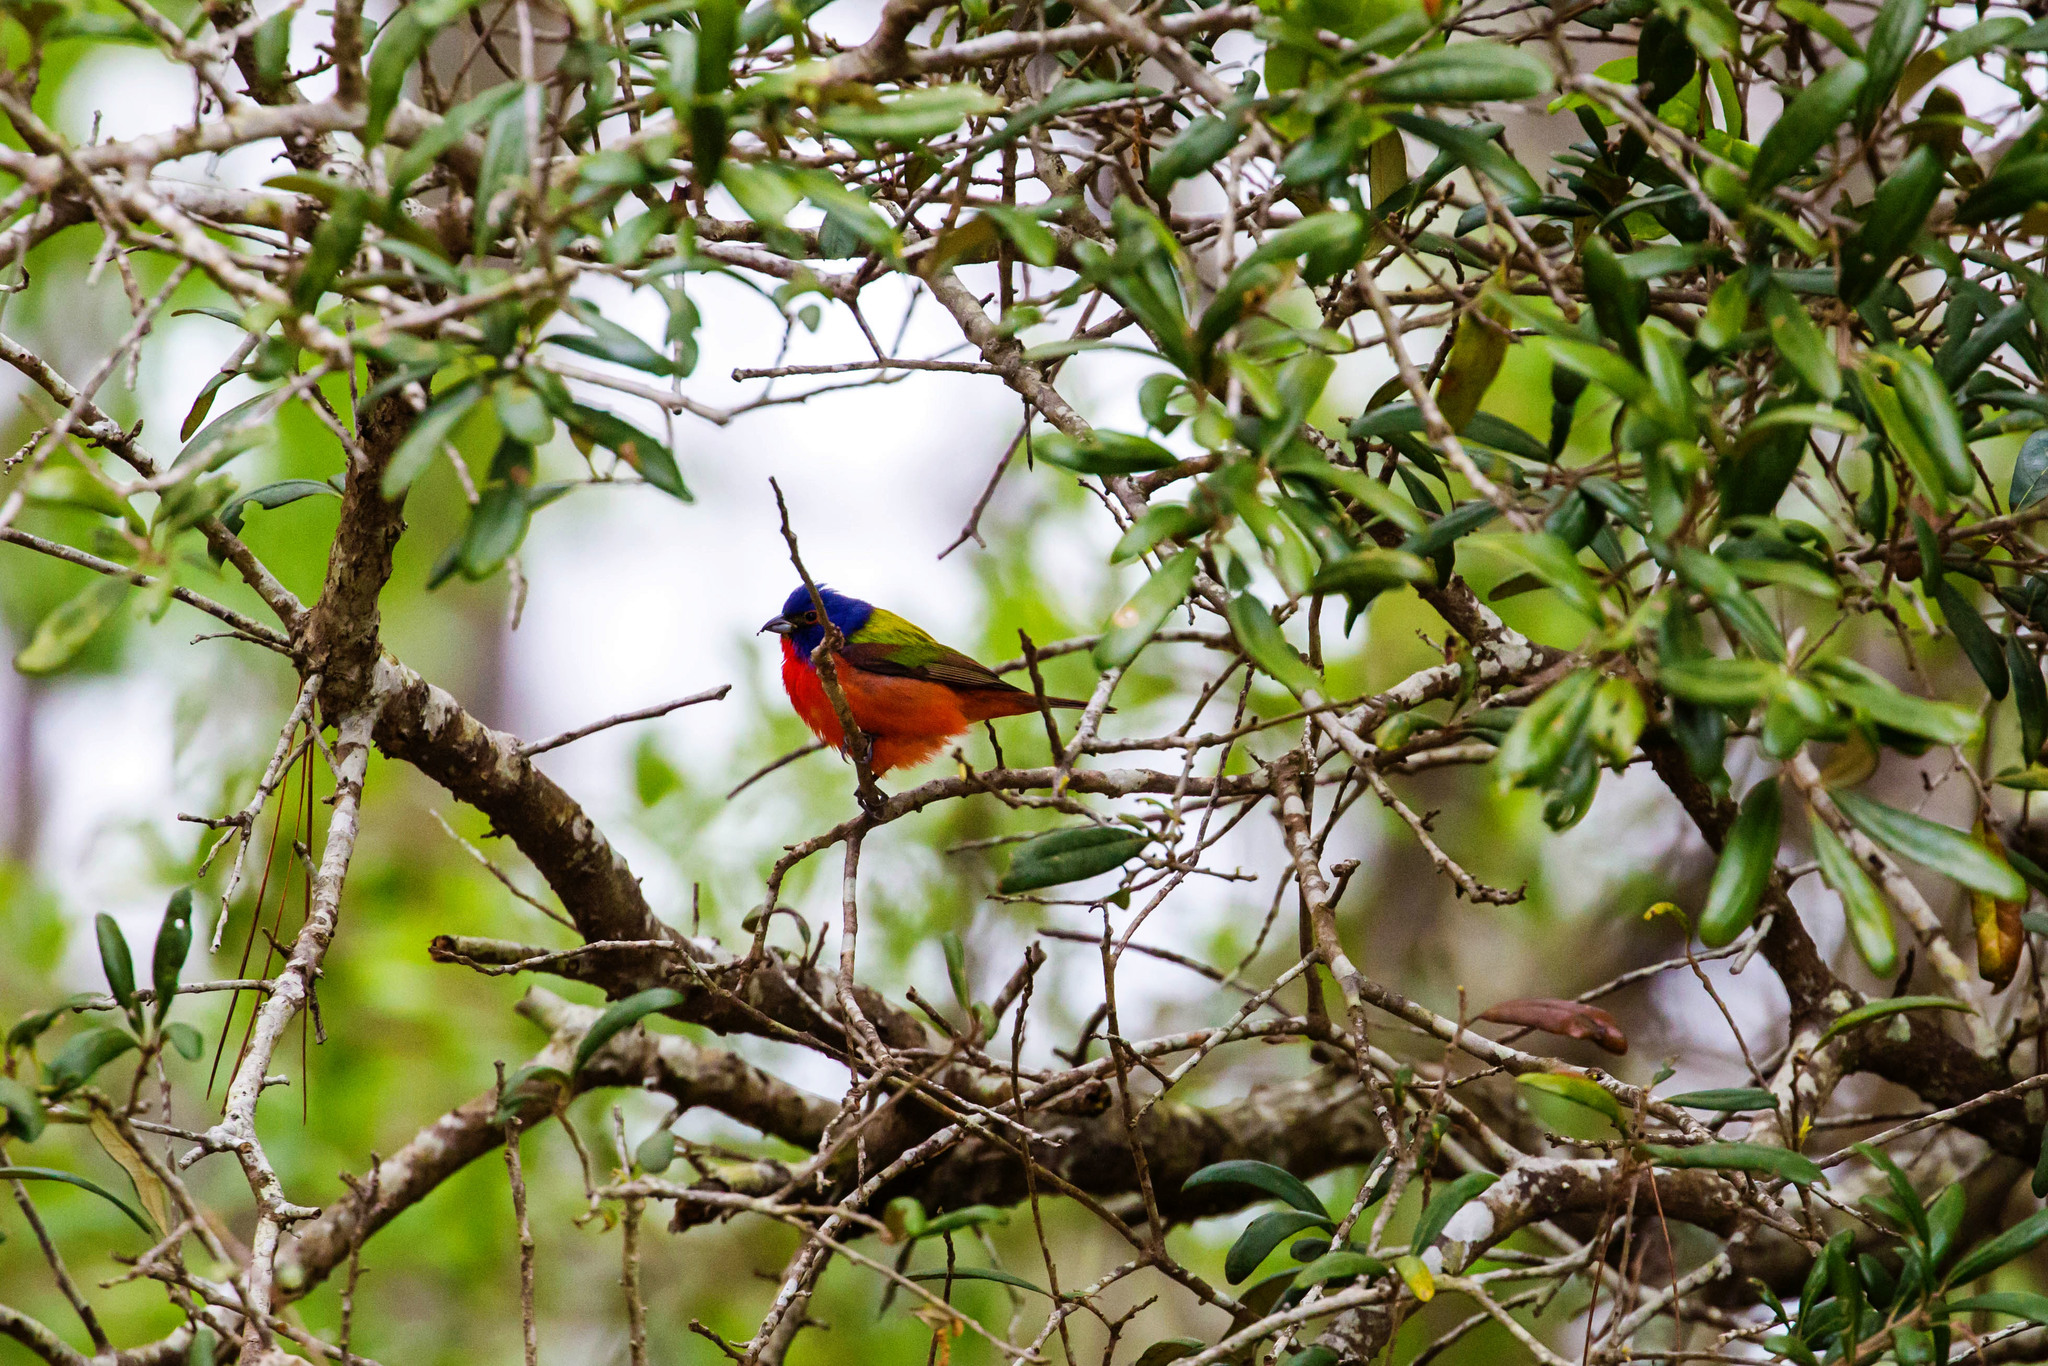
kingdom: Animalia
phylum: Chordata
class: Aves
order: Passeriformes
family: Cardinalidae
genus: Passerina
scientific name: Passerina ciris
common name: Painted bunting
